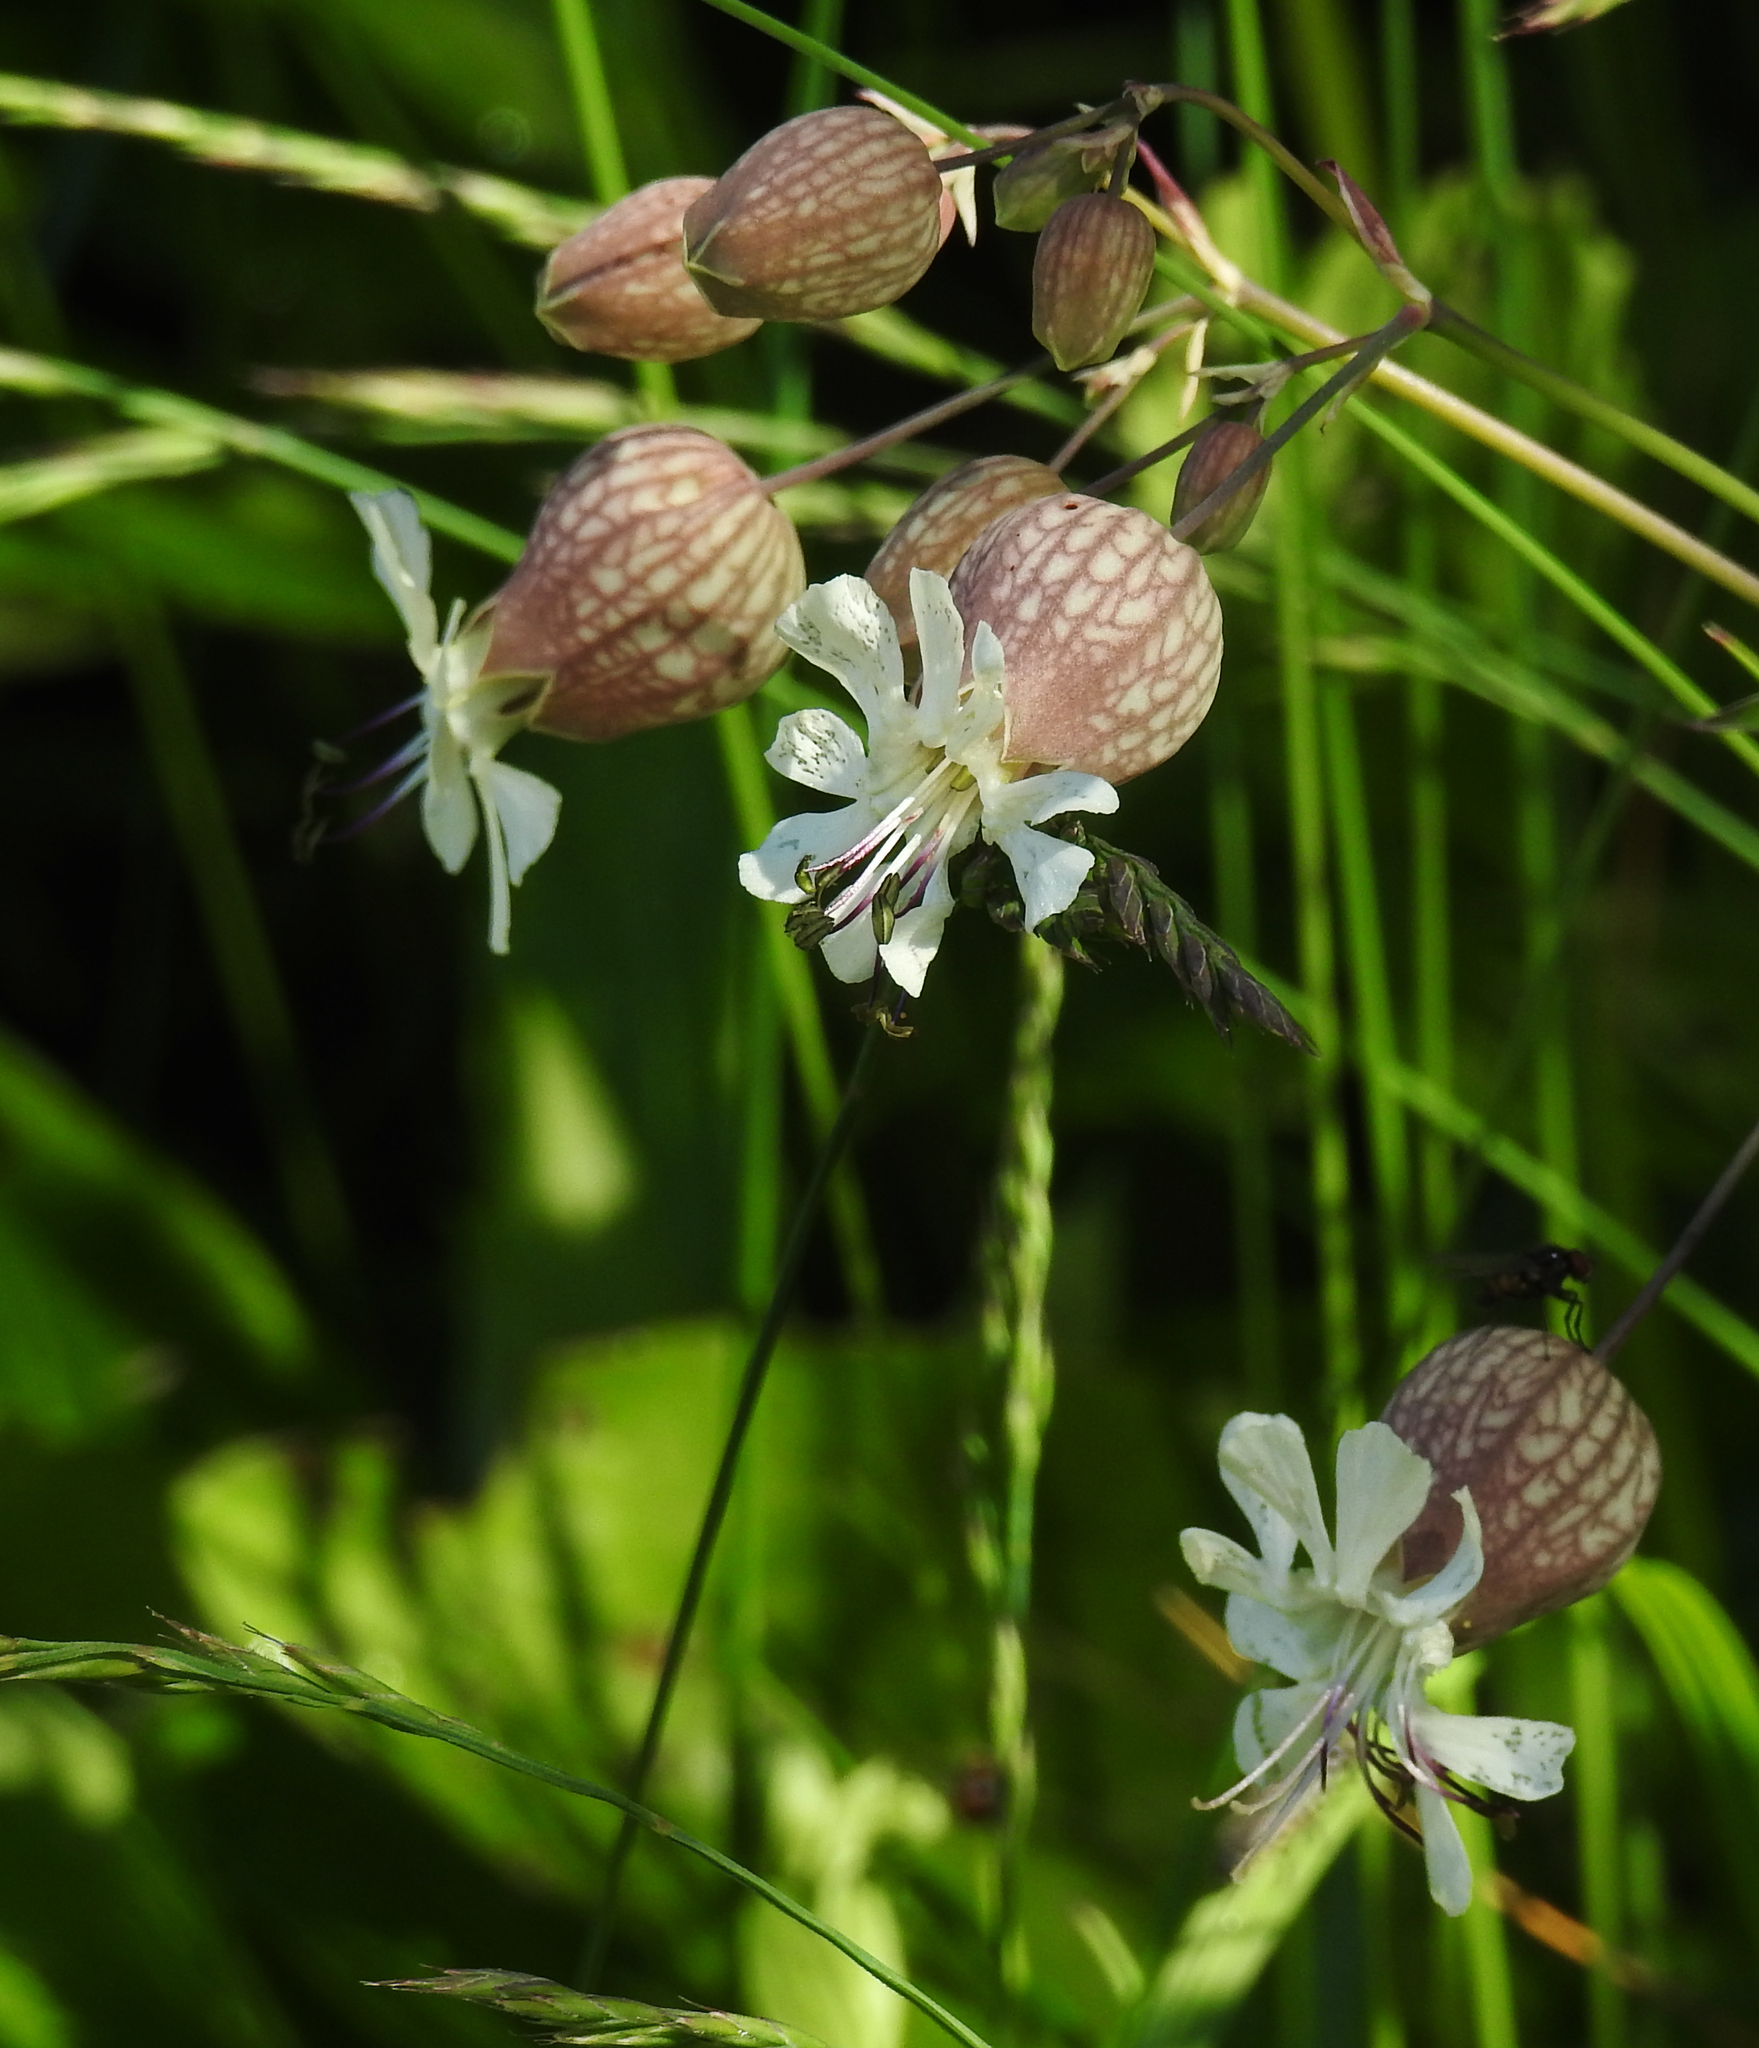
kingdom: Plantae
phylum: Tracheophyta
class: Magnoliopsida
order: Caryophyllales
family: Caryophyllaceae
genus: Silene
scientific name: Silene vulgaris
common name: Bladder campion
